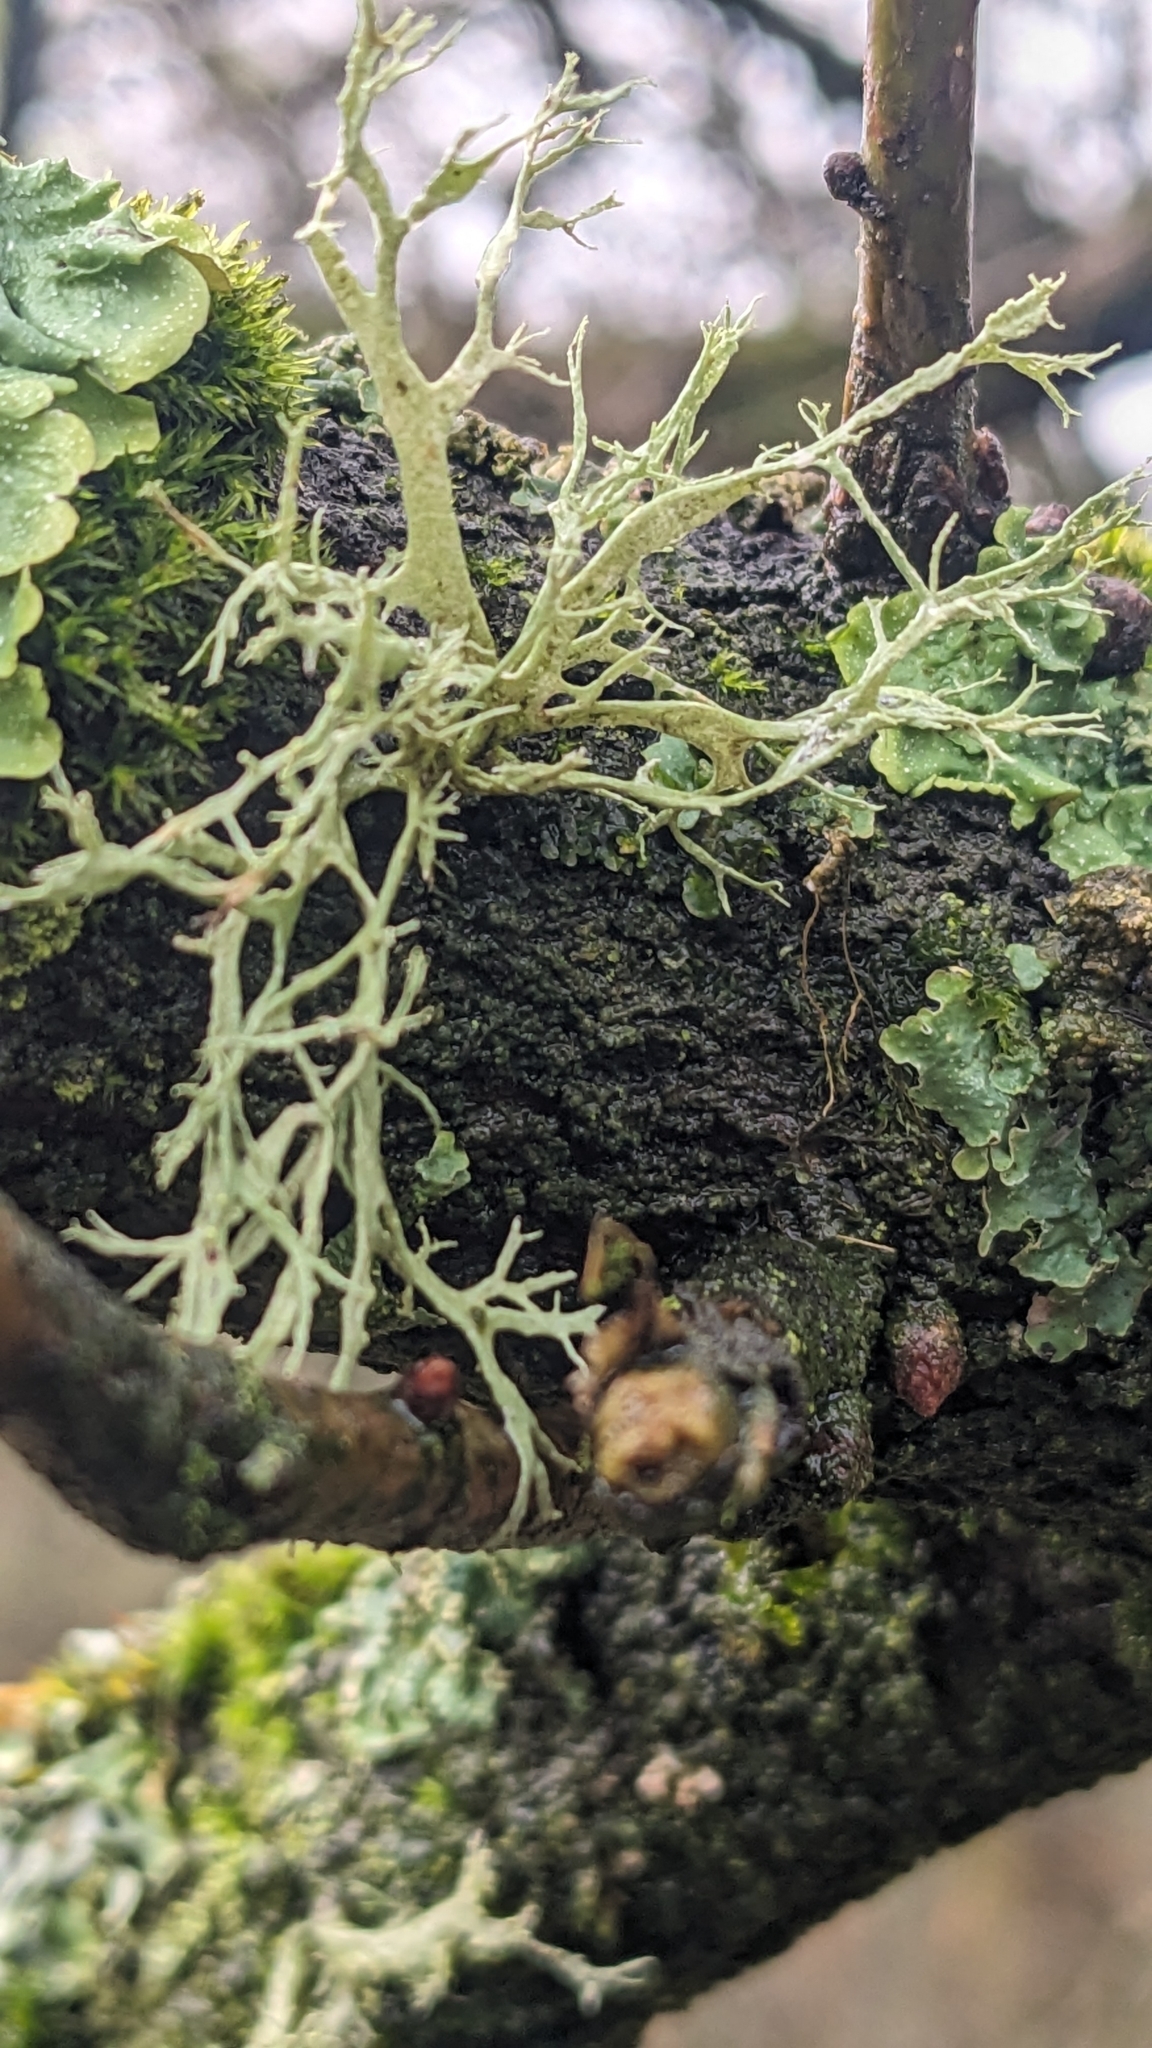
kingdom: Fungi
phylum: Ascomycota
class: Lecanoromycetes
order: Lecanorales
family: Ramalinaceae
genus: Ramalina
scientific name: Ramalina farinacea
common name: Farinose cartilage lichen
